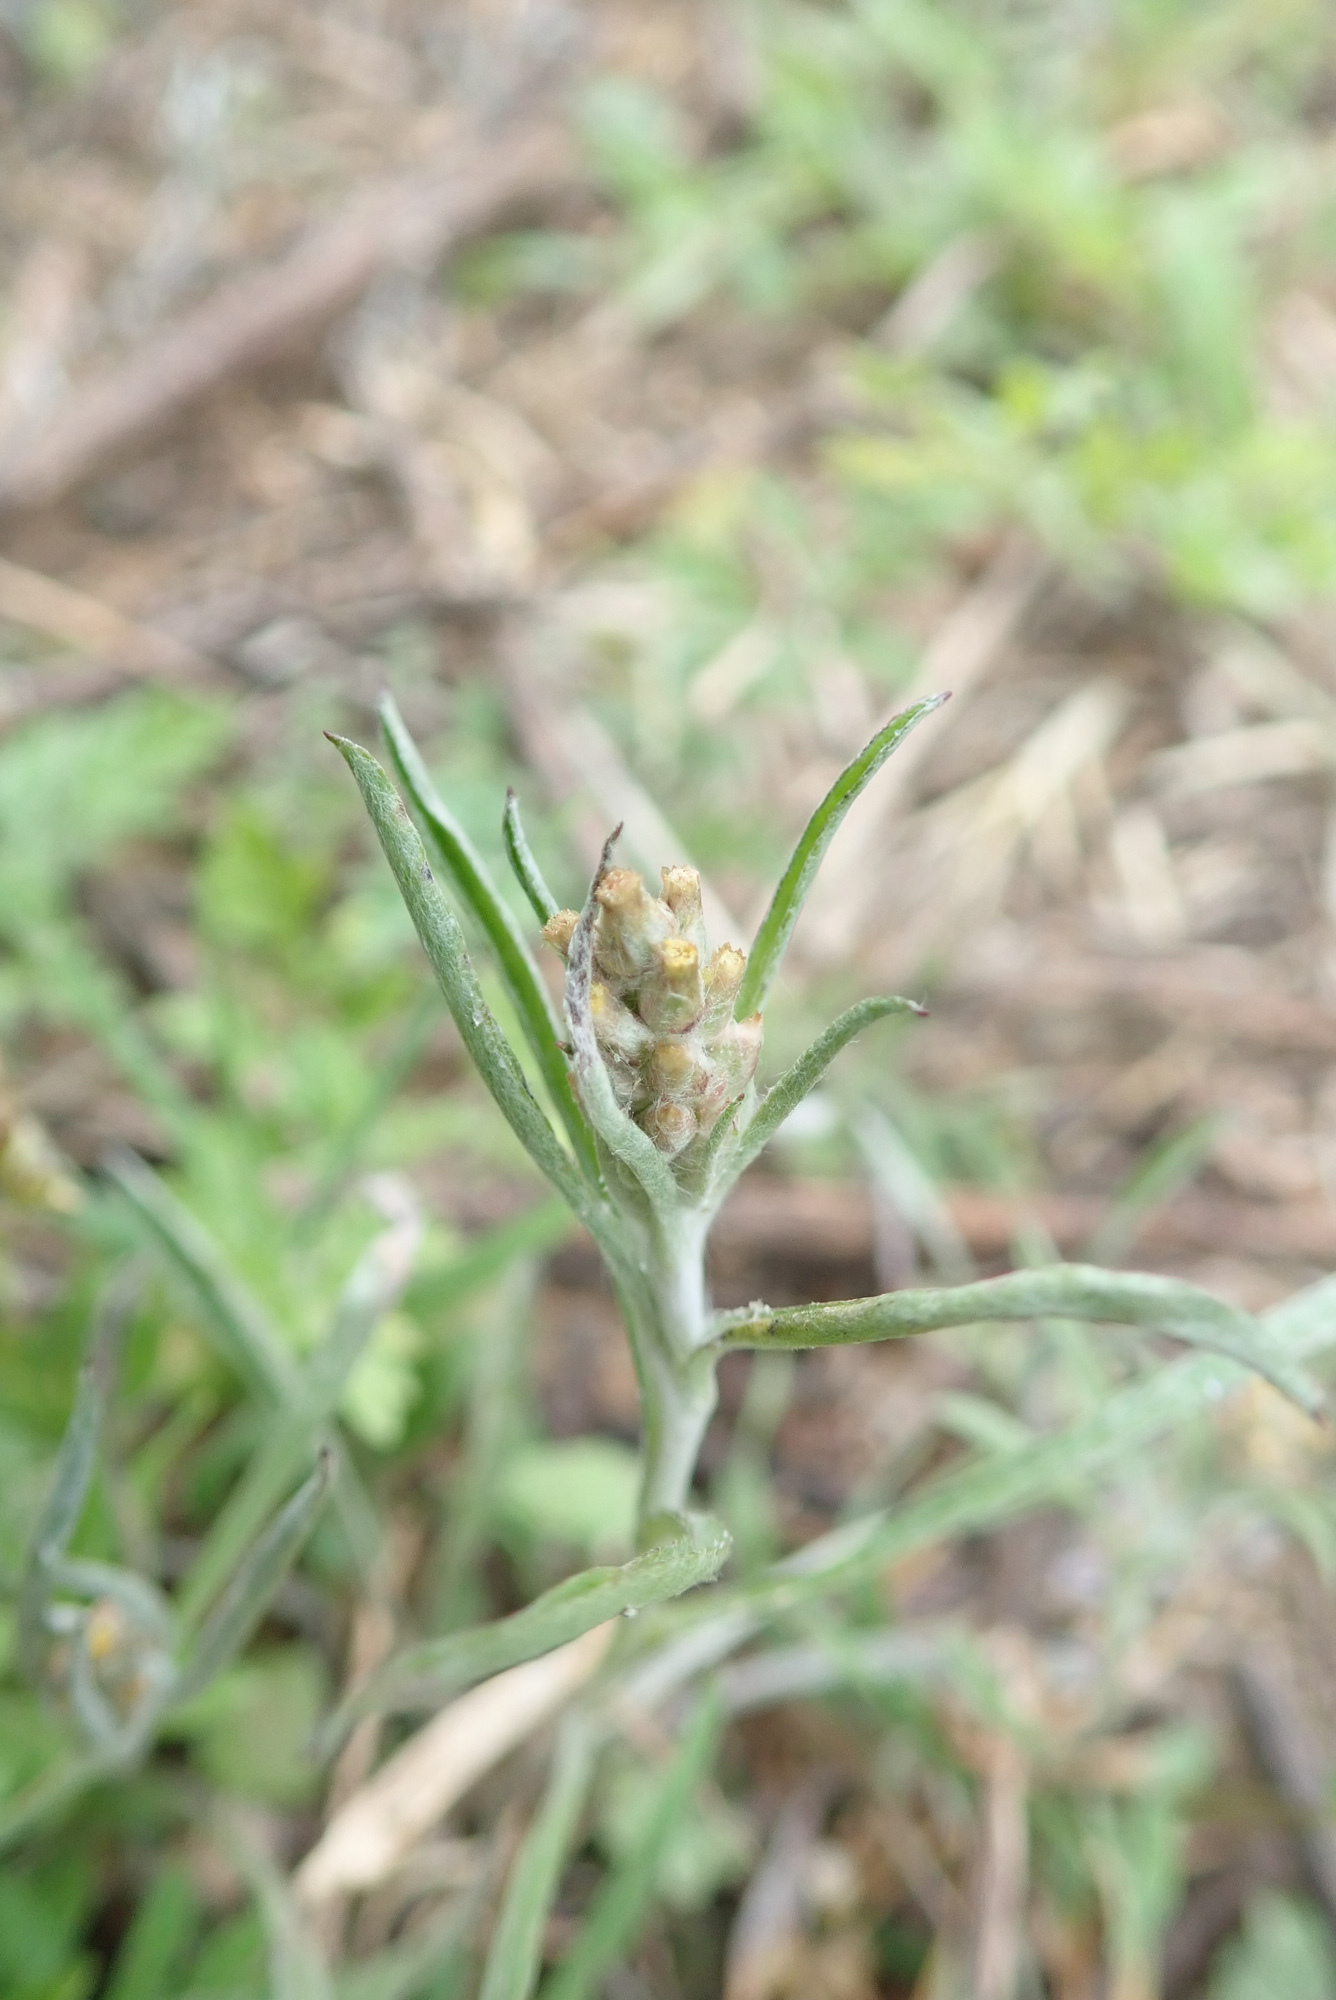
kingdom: Plantae
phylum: Tracheophyta
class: Magnoliopsida
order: Asterales
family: Asteraceae
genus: Gamochaeta
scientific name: Gamochaeta calviceps
